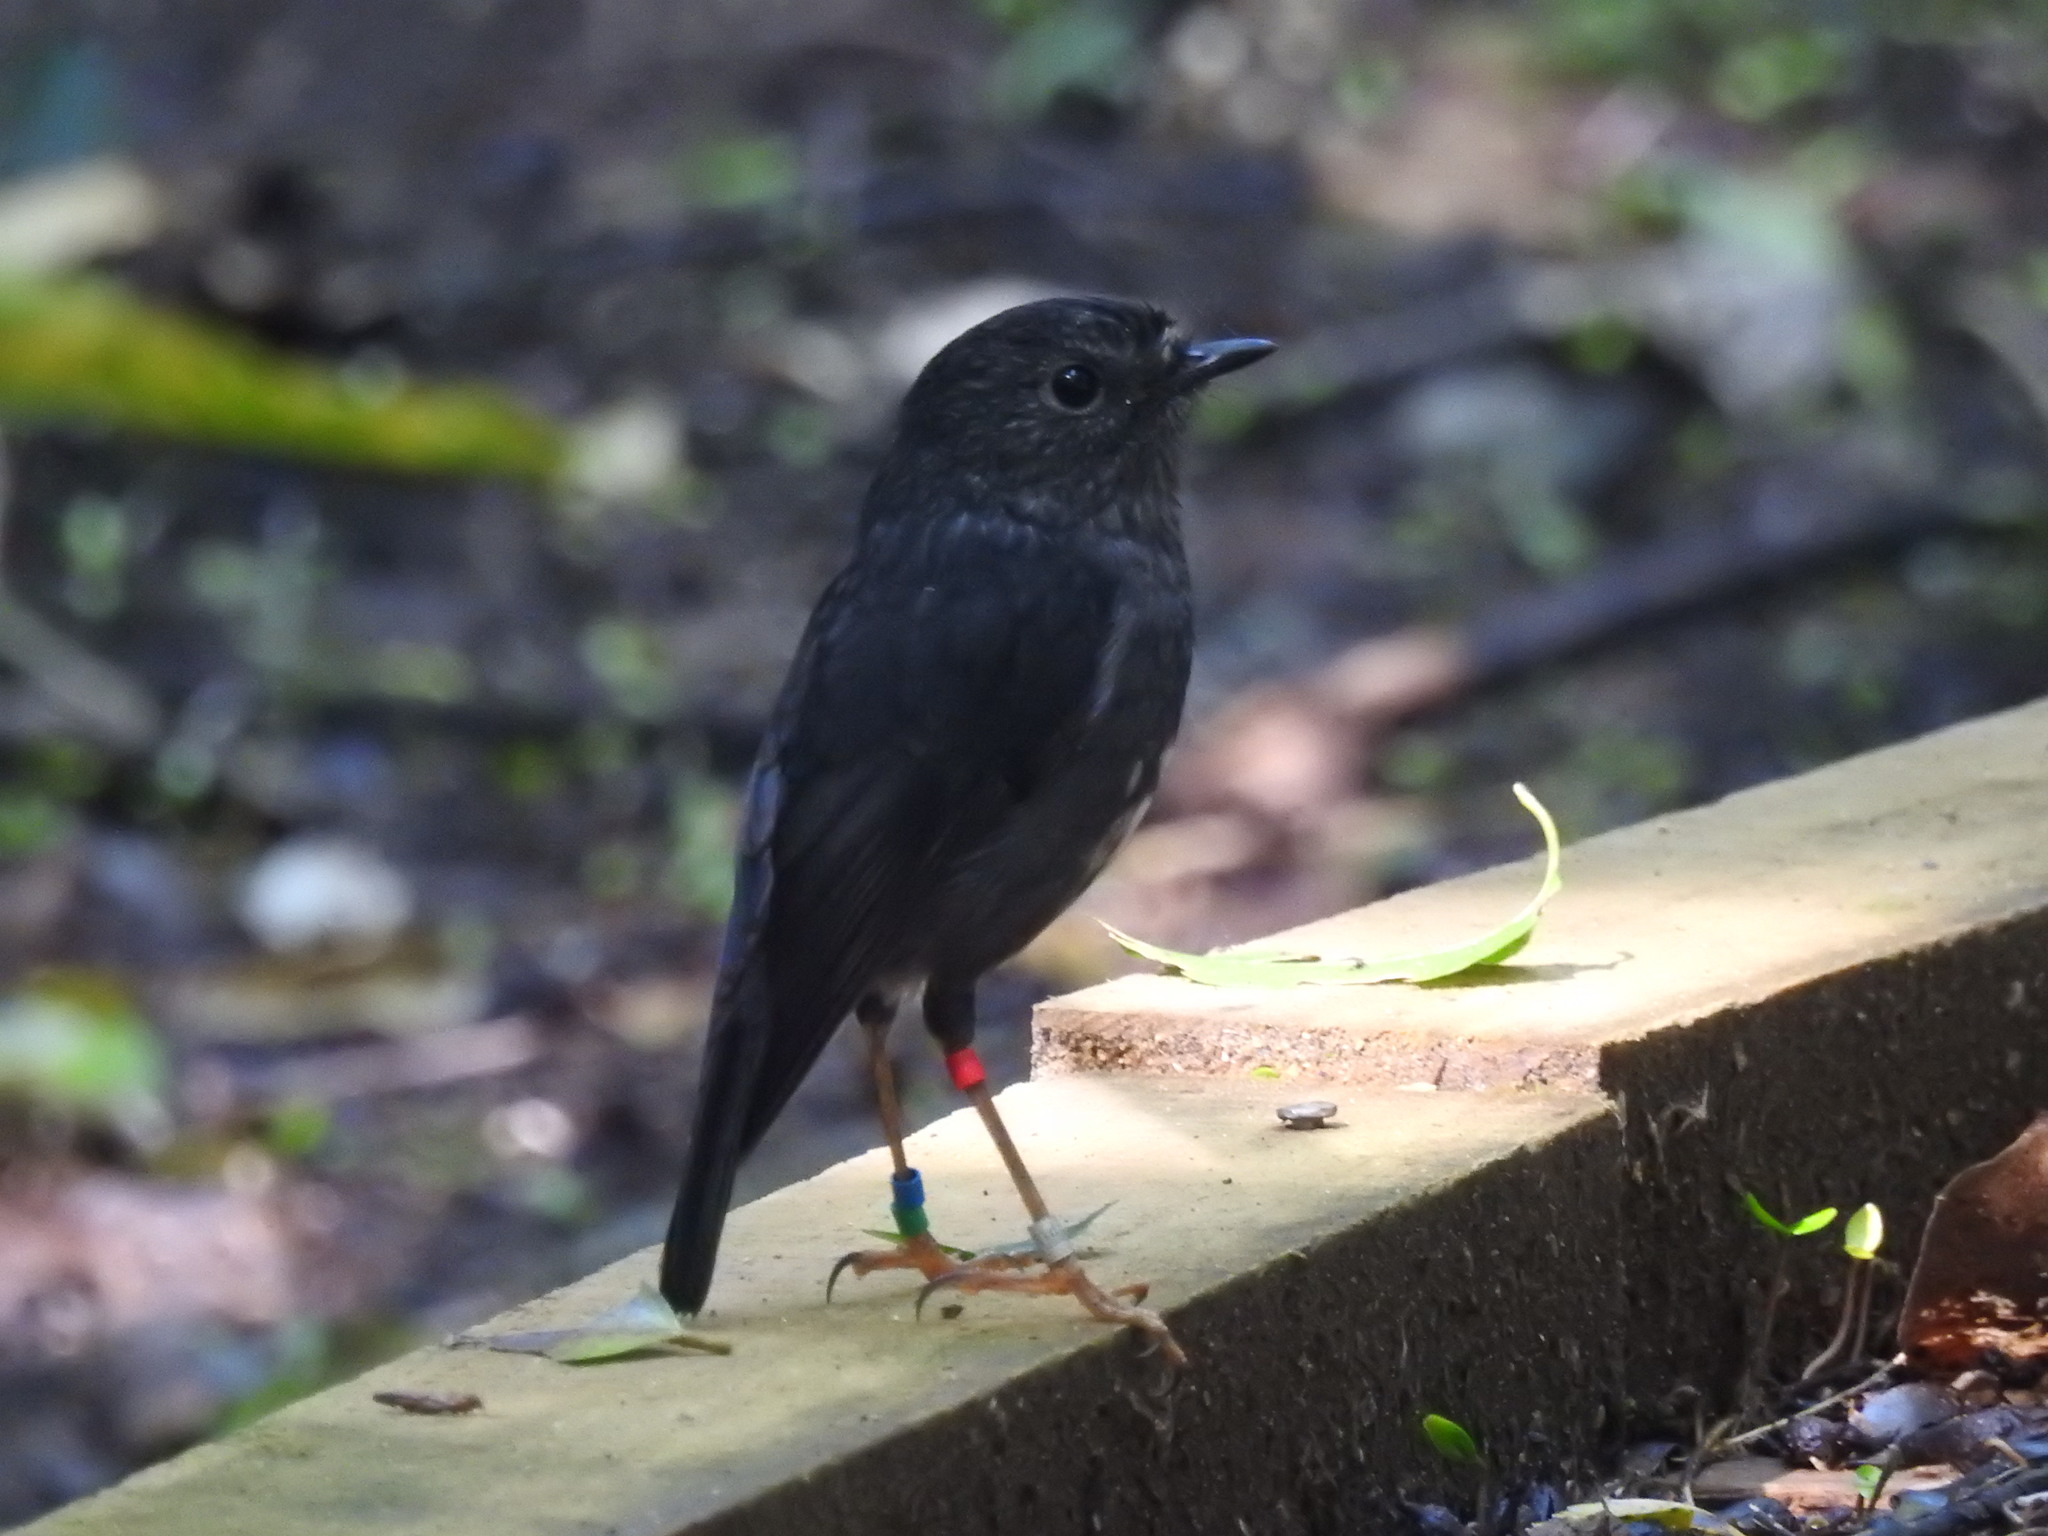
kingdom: Animalia
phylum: Chordata
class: Aves
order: Passeriformes
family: Petroicidae
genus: Petroica
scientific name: Petroica australis
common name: New zealand robin
